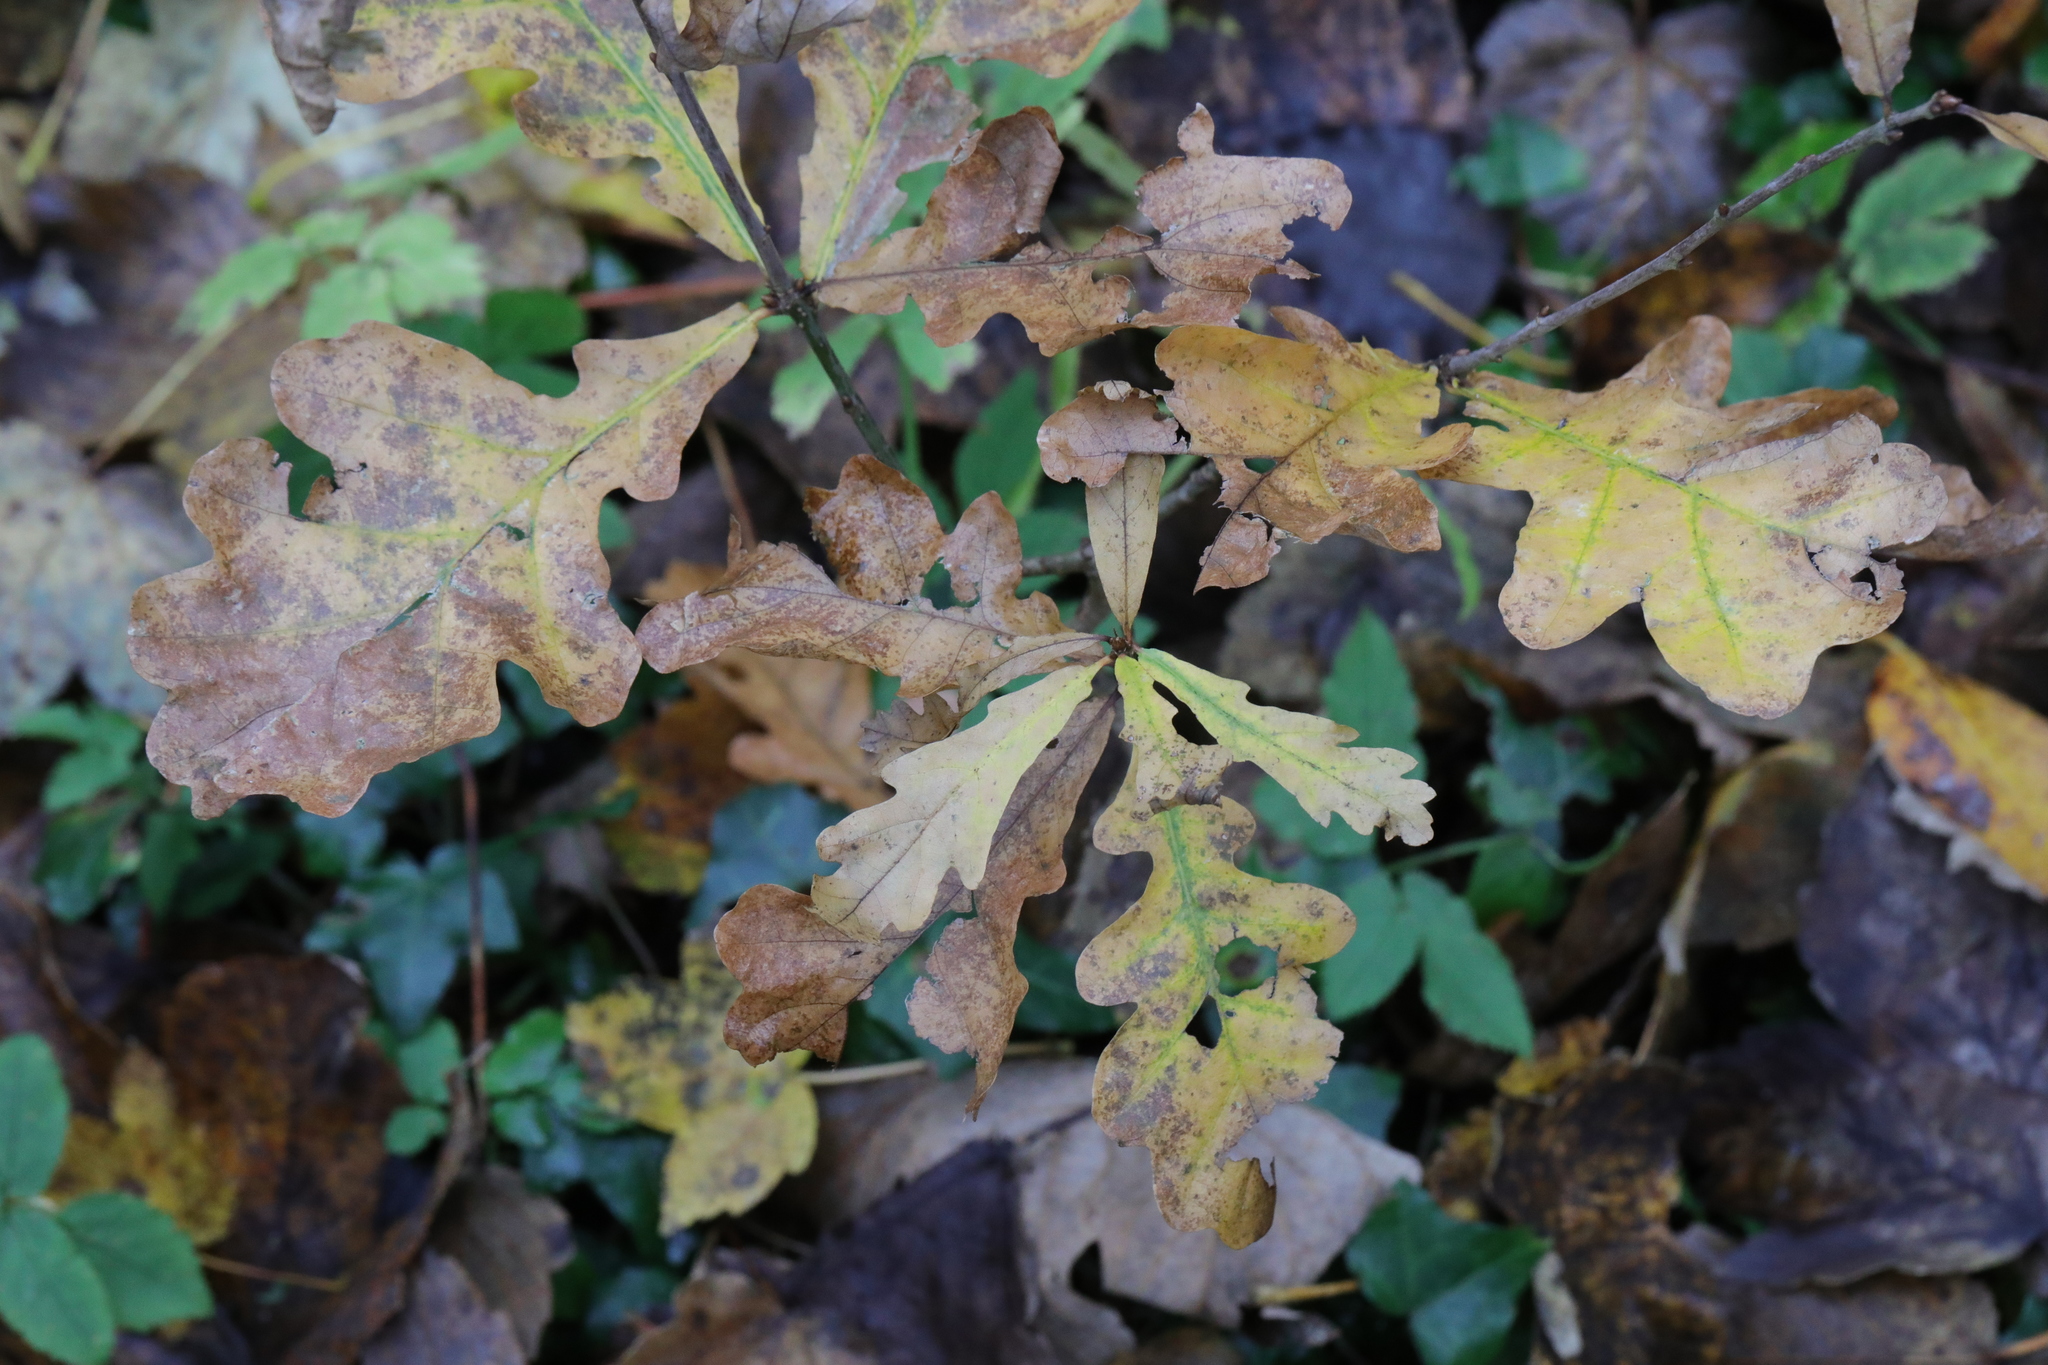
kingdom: Plantae
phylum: Tracheophyta
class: Magnoliopsida
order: Fagales
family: Fagaceae
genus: Quercus
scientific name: Quercus robur
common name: Pedunculate oak
